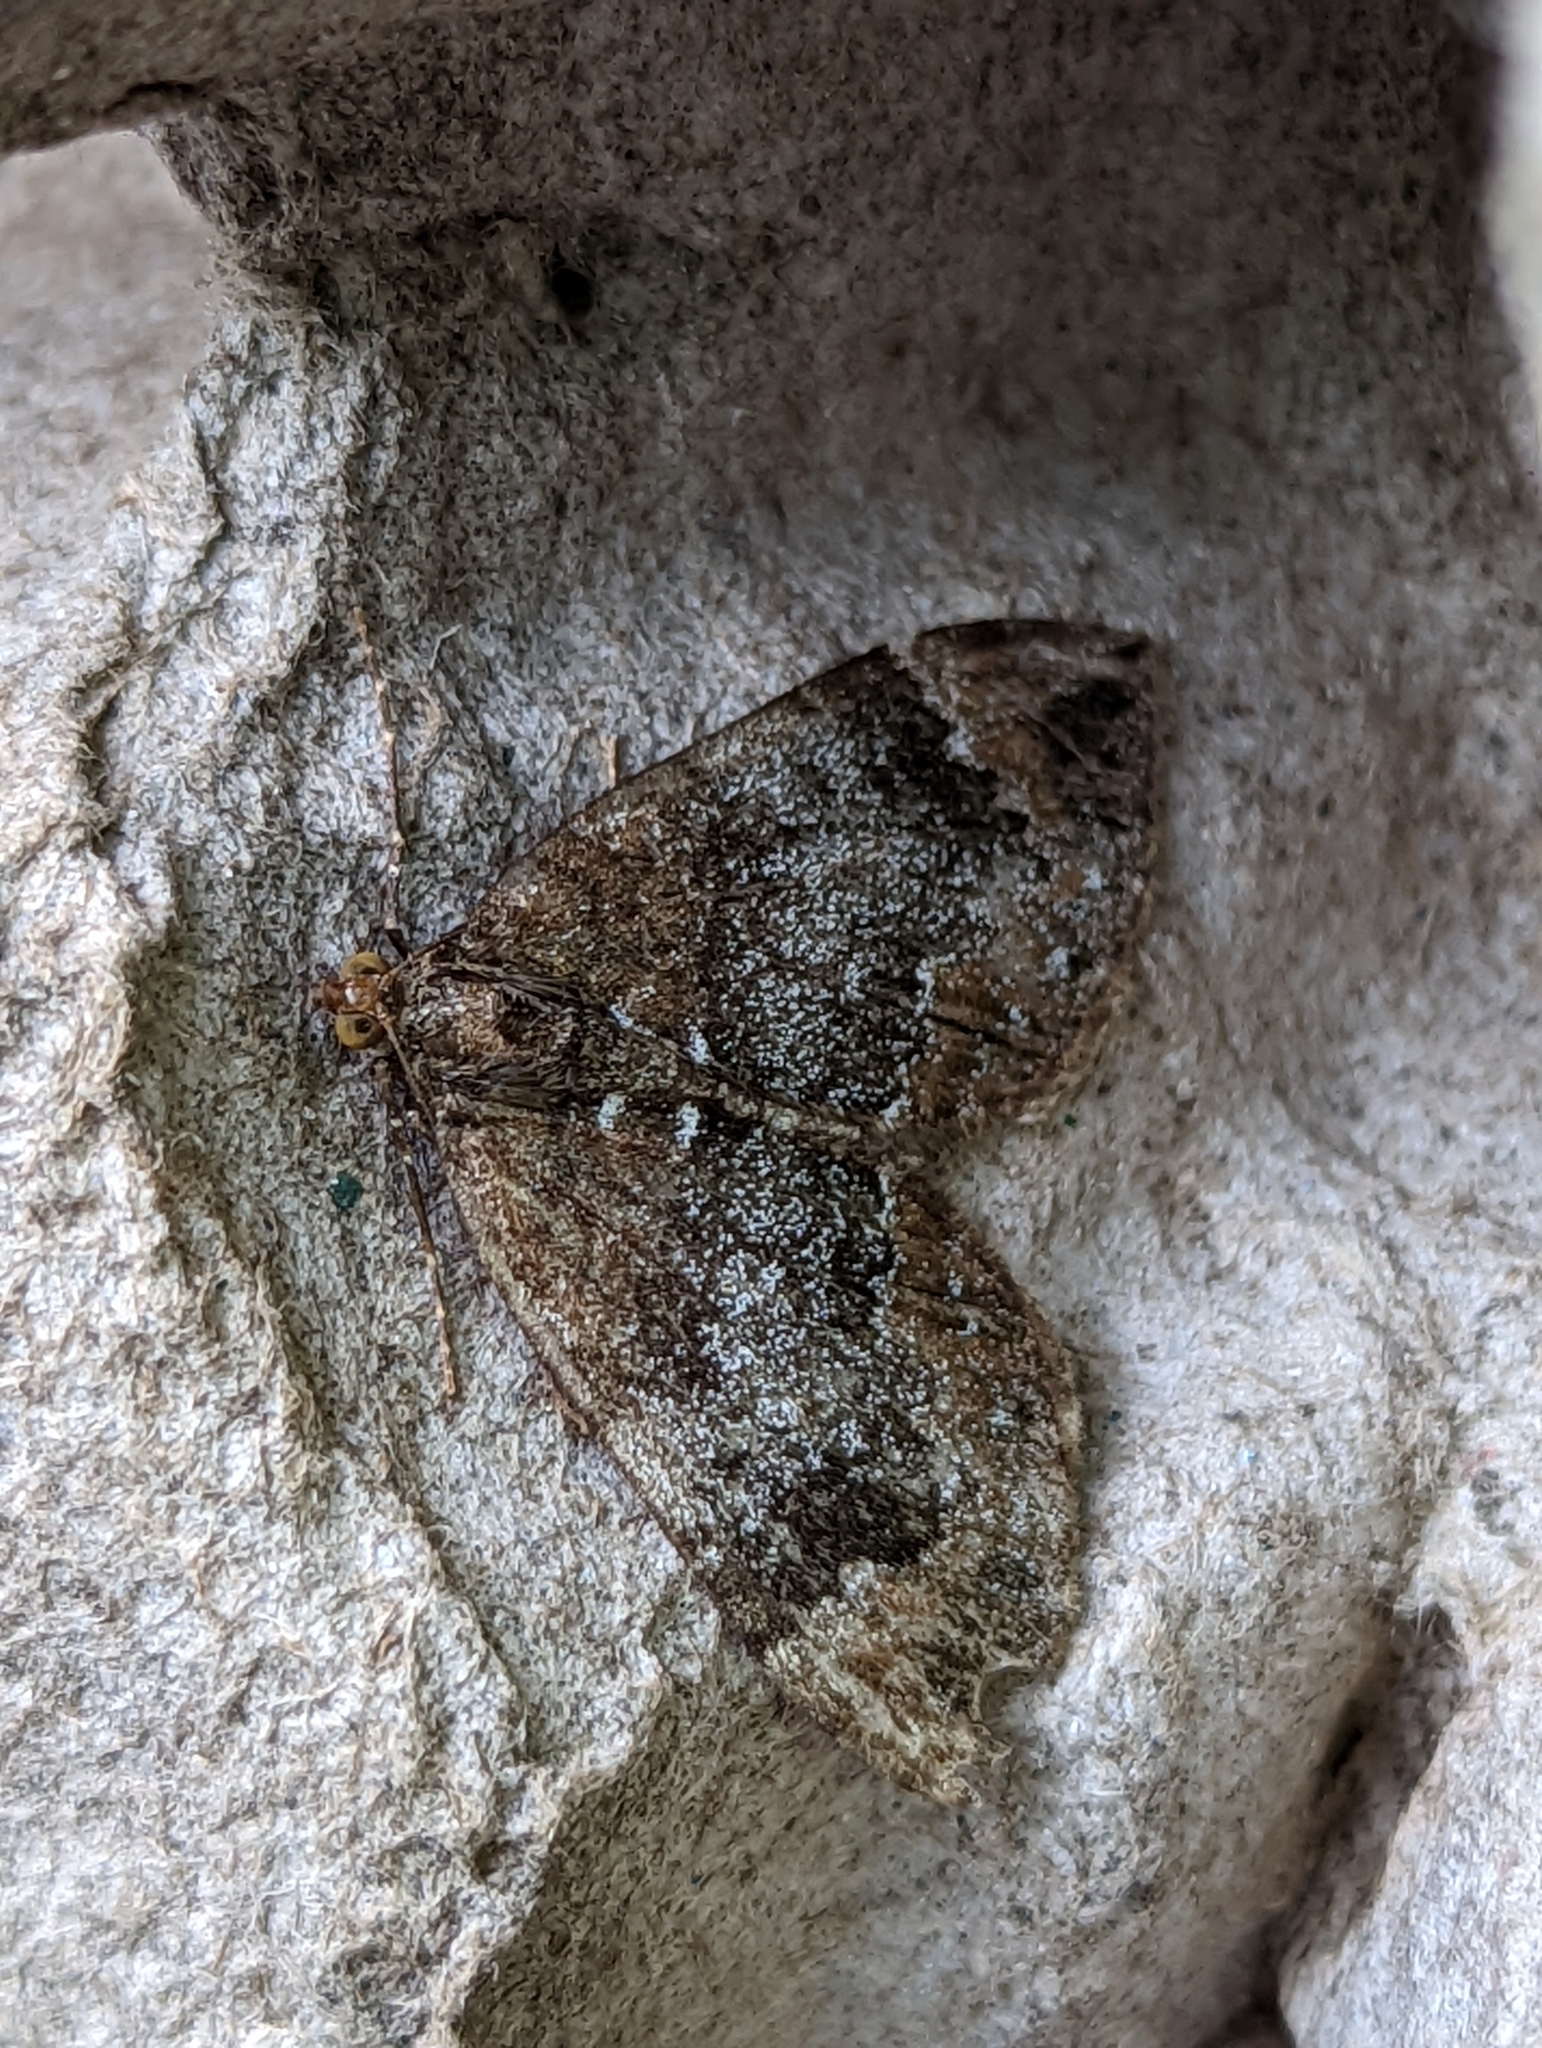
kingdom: Animalia
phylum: Arthropoda
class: Insecta
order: Lepidoptera
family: Geometridae
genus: Dysstroma
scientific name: Dysstroma truncata
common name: Common marbled carpet
